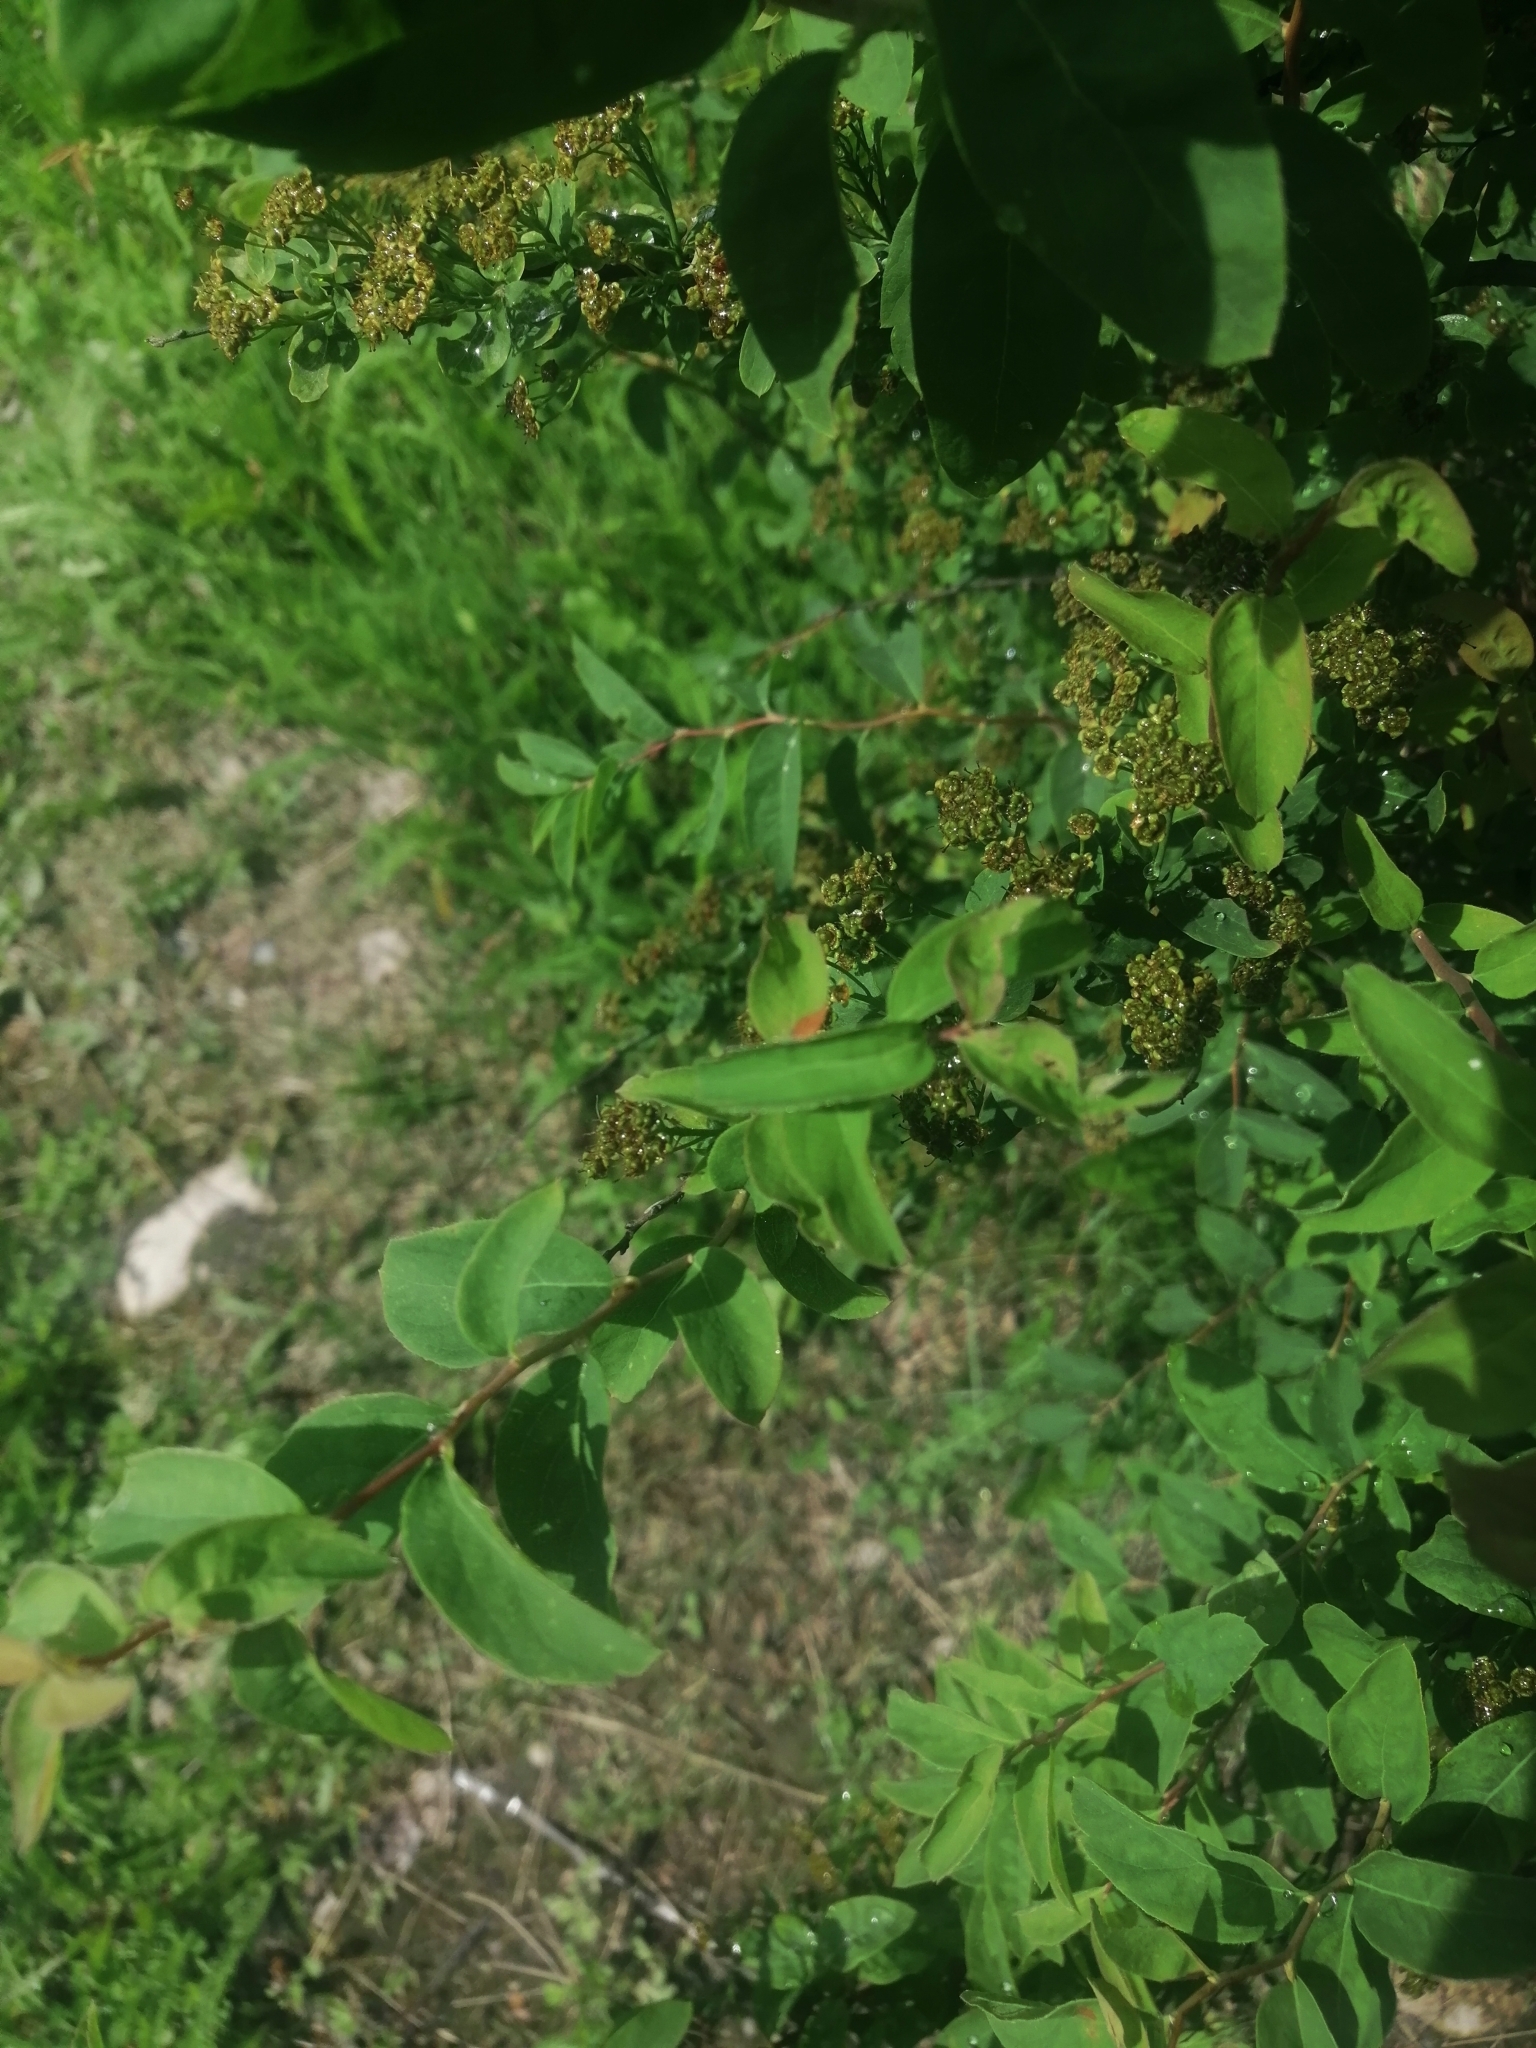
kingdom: Plantae
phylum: Tracheophyta
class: Magnoliopsida
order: Rosales
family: Rosaceae
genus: Spiraea
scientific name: Spiraea media
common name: Russian spiraea
